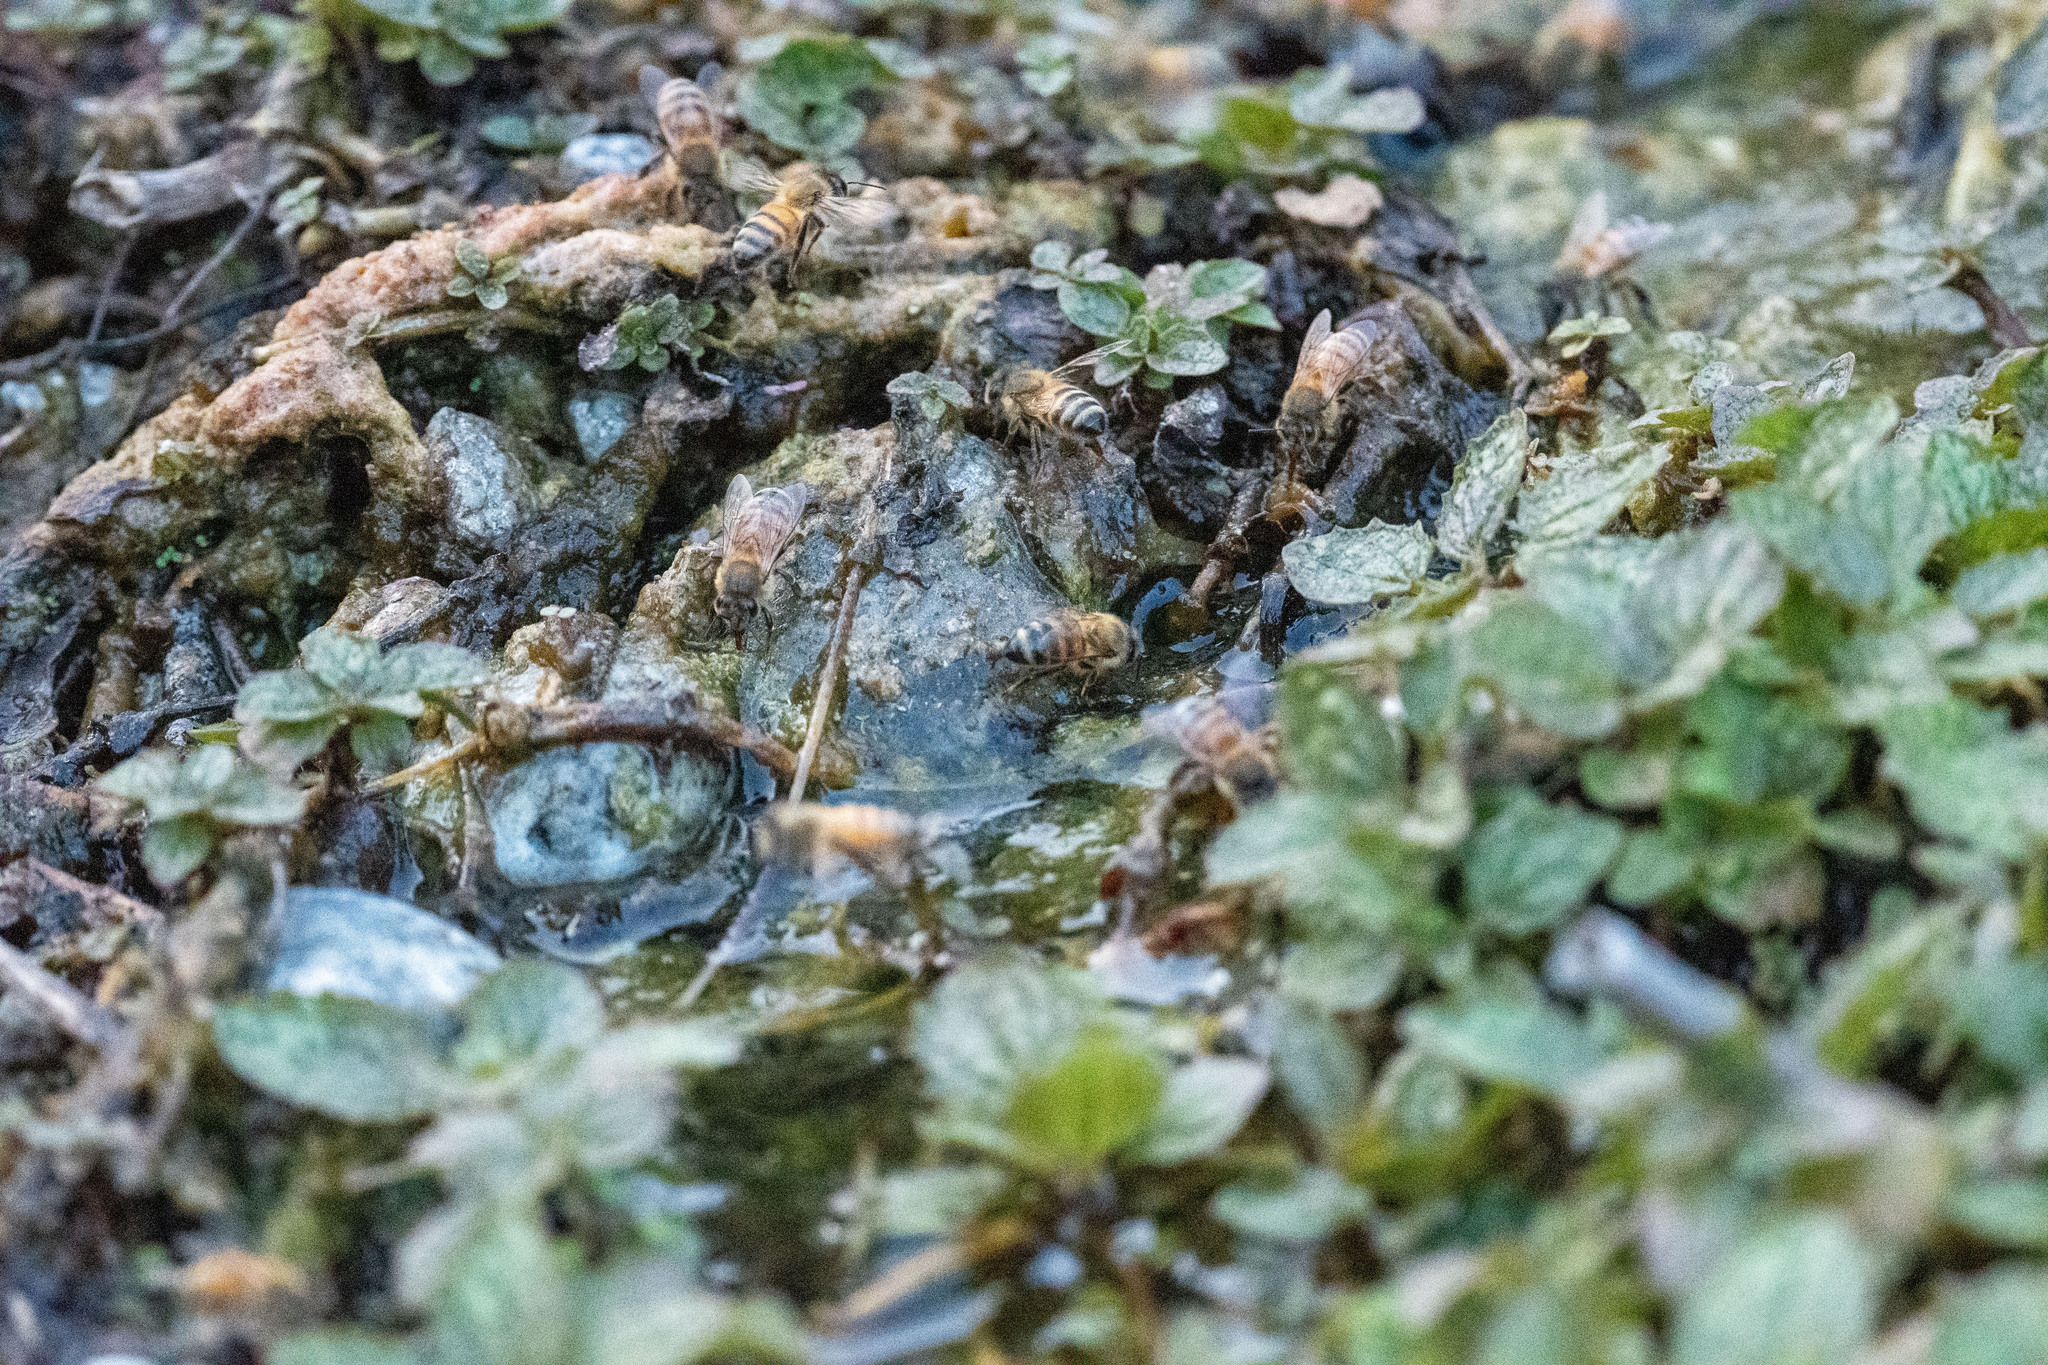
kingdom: Animalia
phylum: Arthropoda
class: Insecta
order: Hymenoptera
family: Apidae
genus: Apis
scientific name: Apis mellifera
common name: Honey bee
